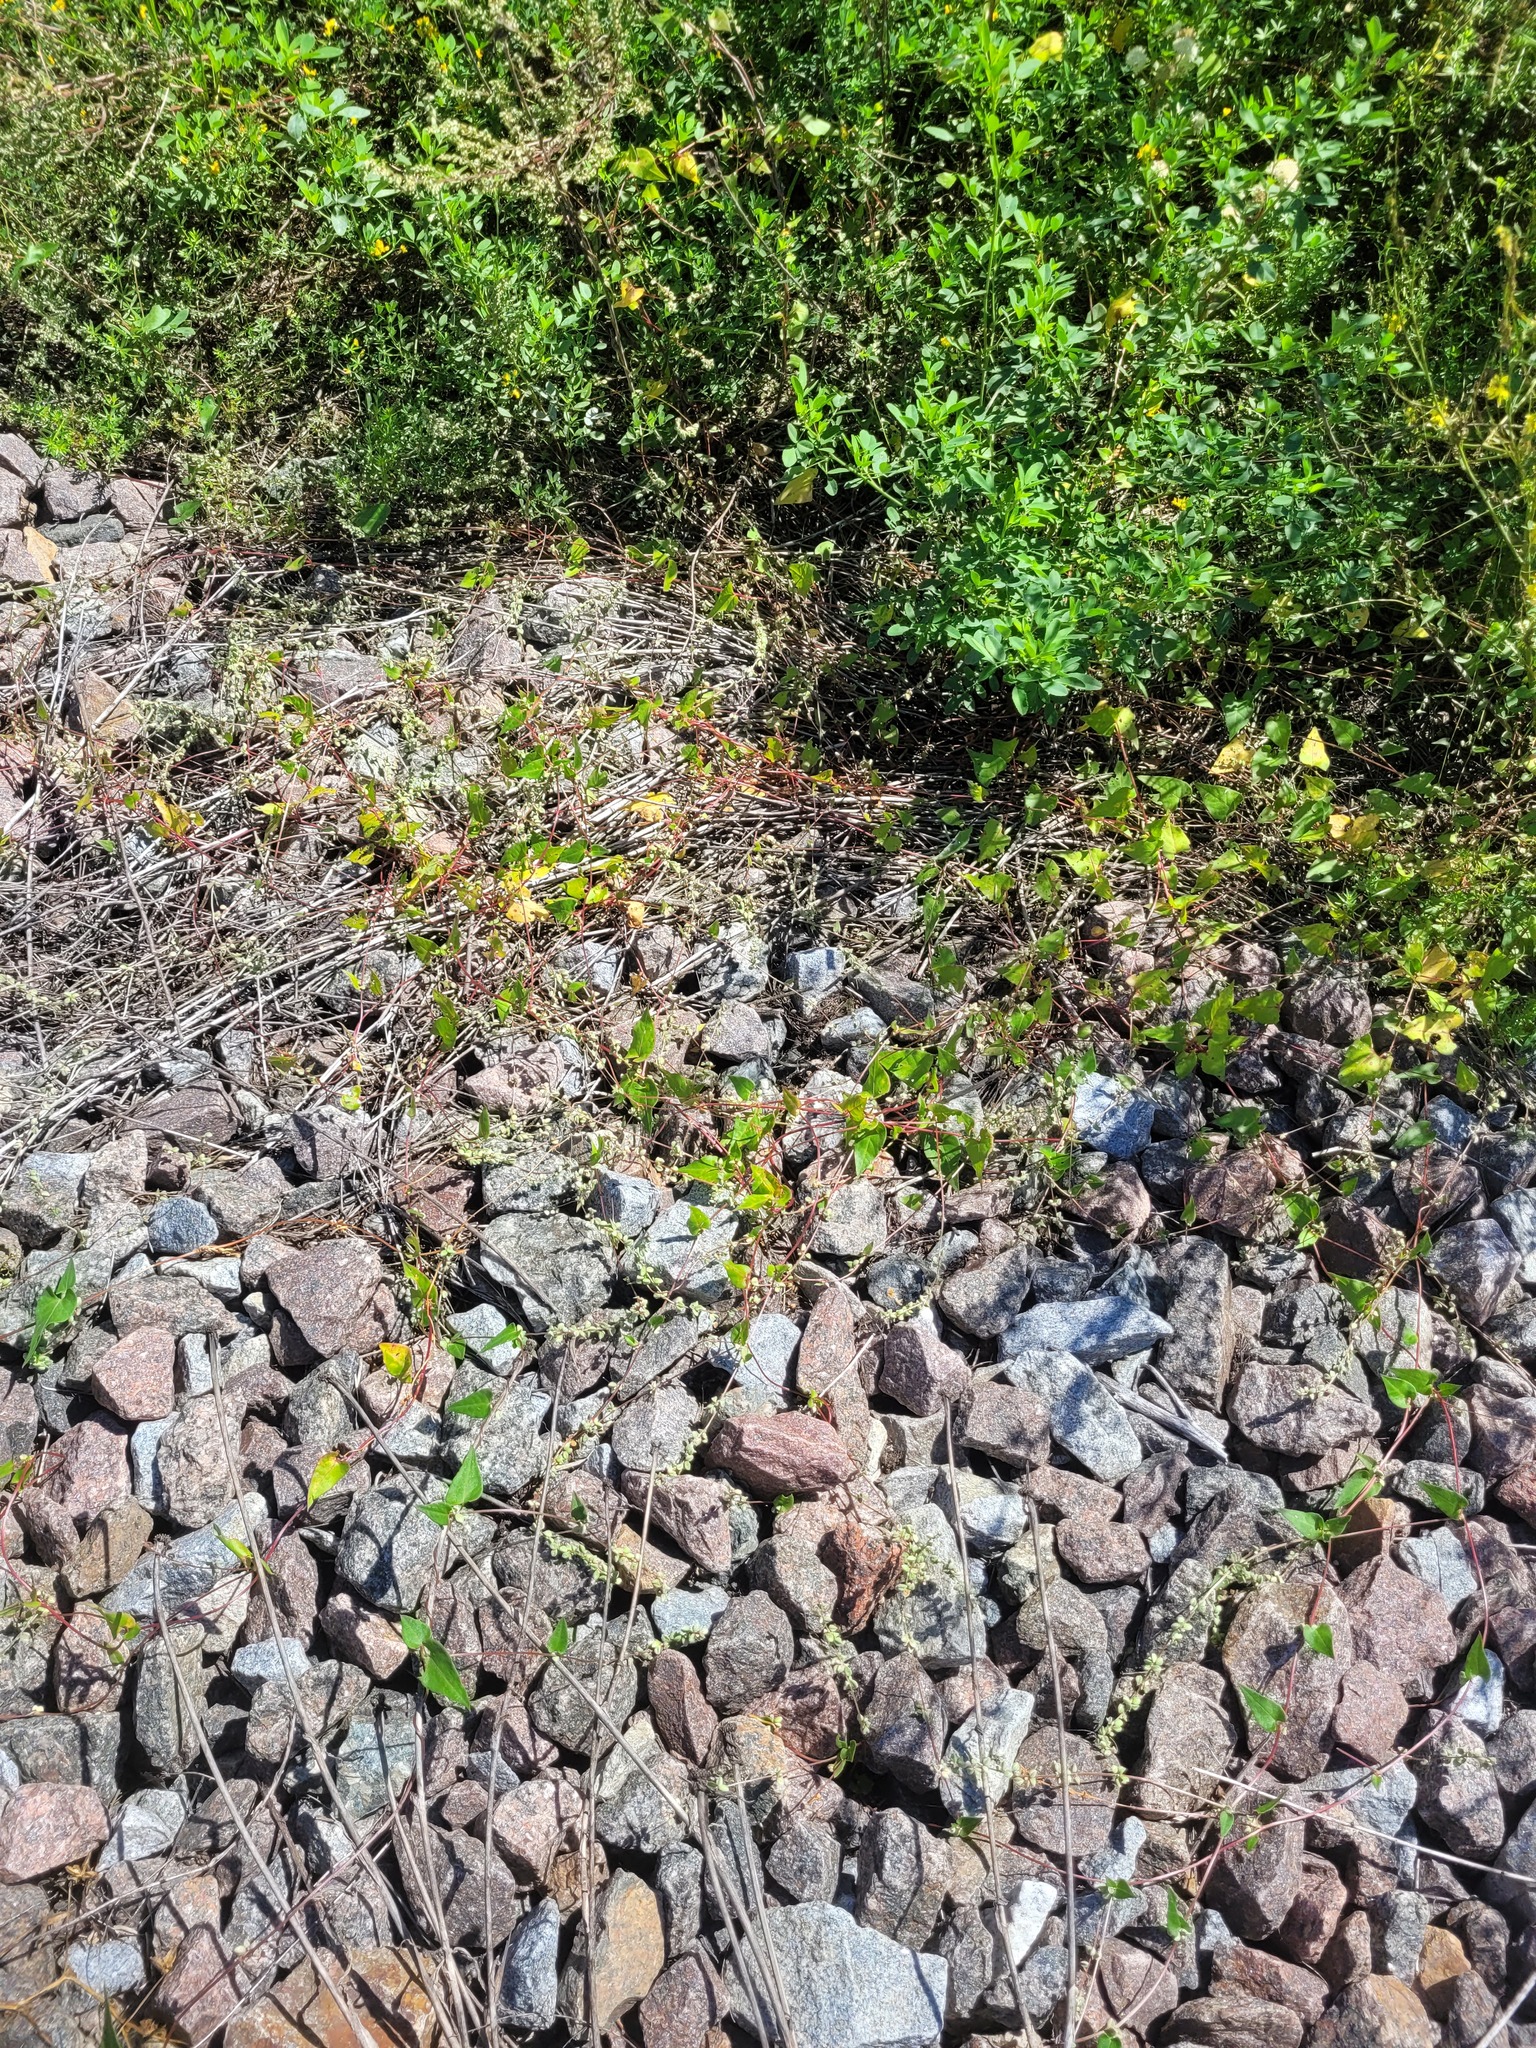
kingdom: Plantae
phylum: Tracheophyta
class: Magnoliopsida
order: Caryophyllales
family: Polygonaceae
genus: Fallopia
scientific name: Fallopia convolvulus
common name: Black bindweed
